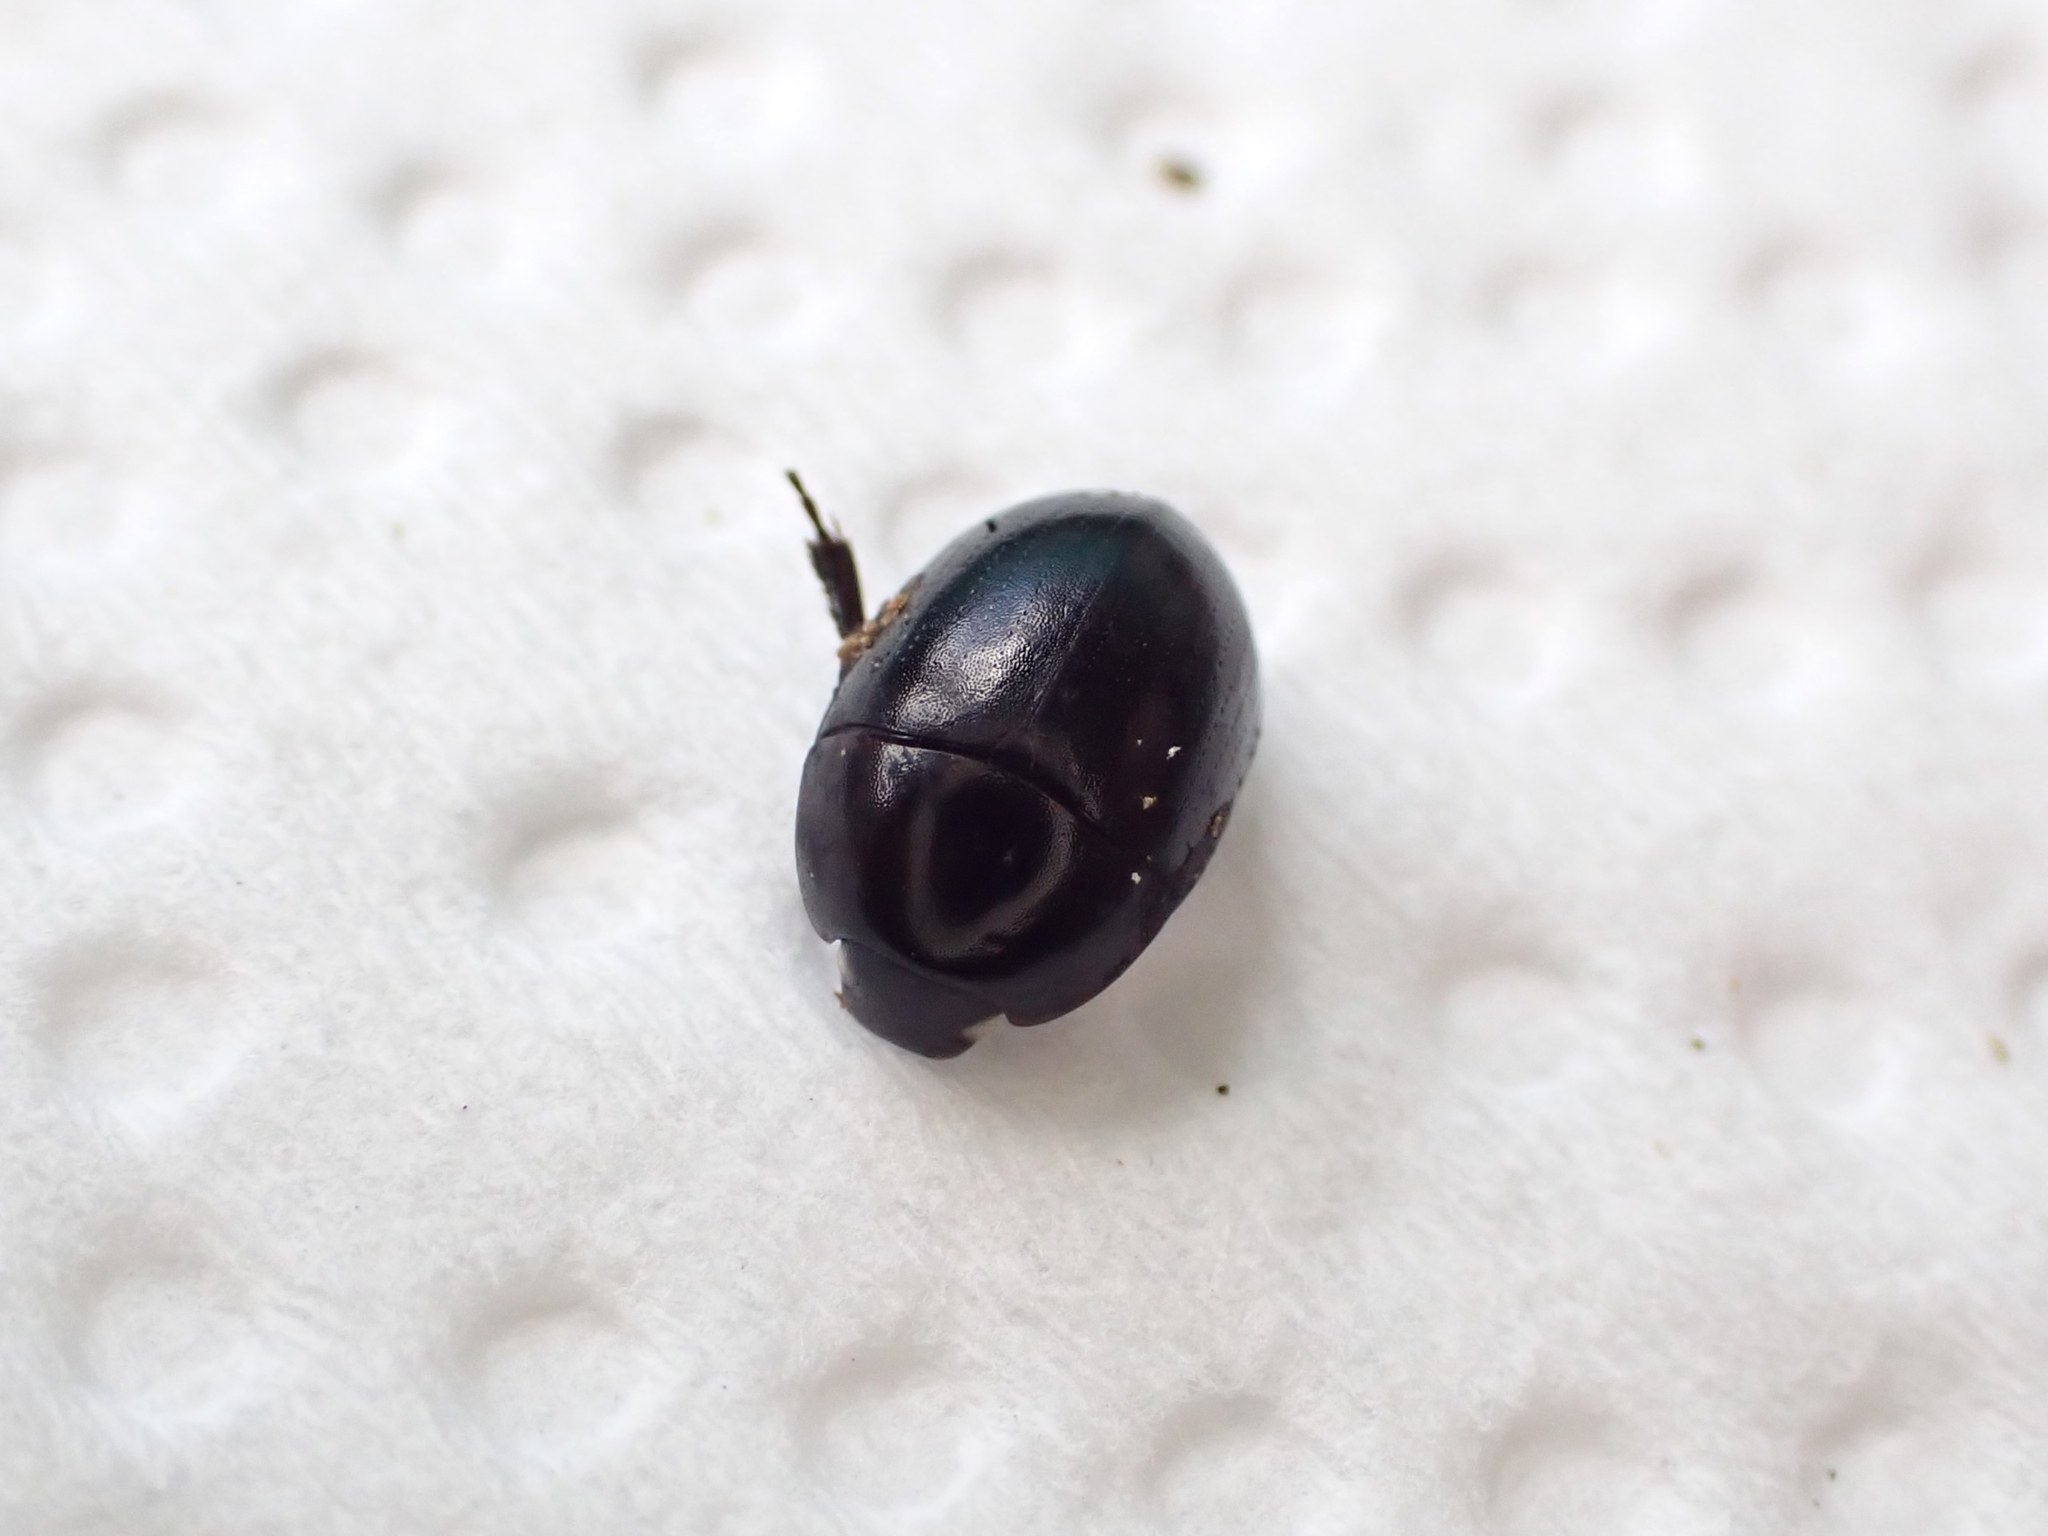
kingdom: Animalia
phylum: Arthropoda
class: Insecta
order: Coleoptera
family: Hydrophilidae
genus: Tormissus
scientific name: Tormissus linsi
